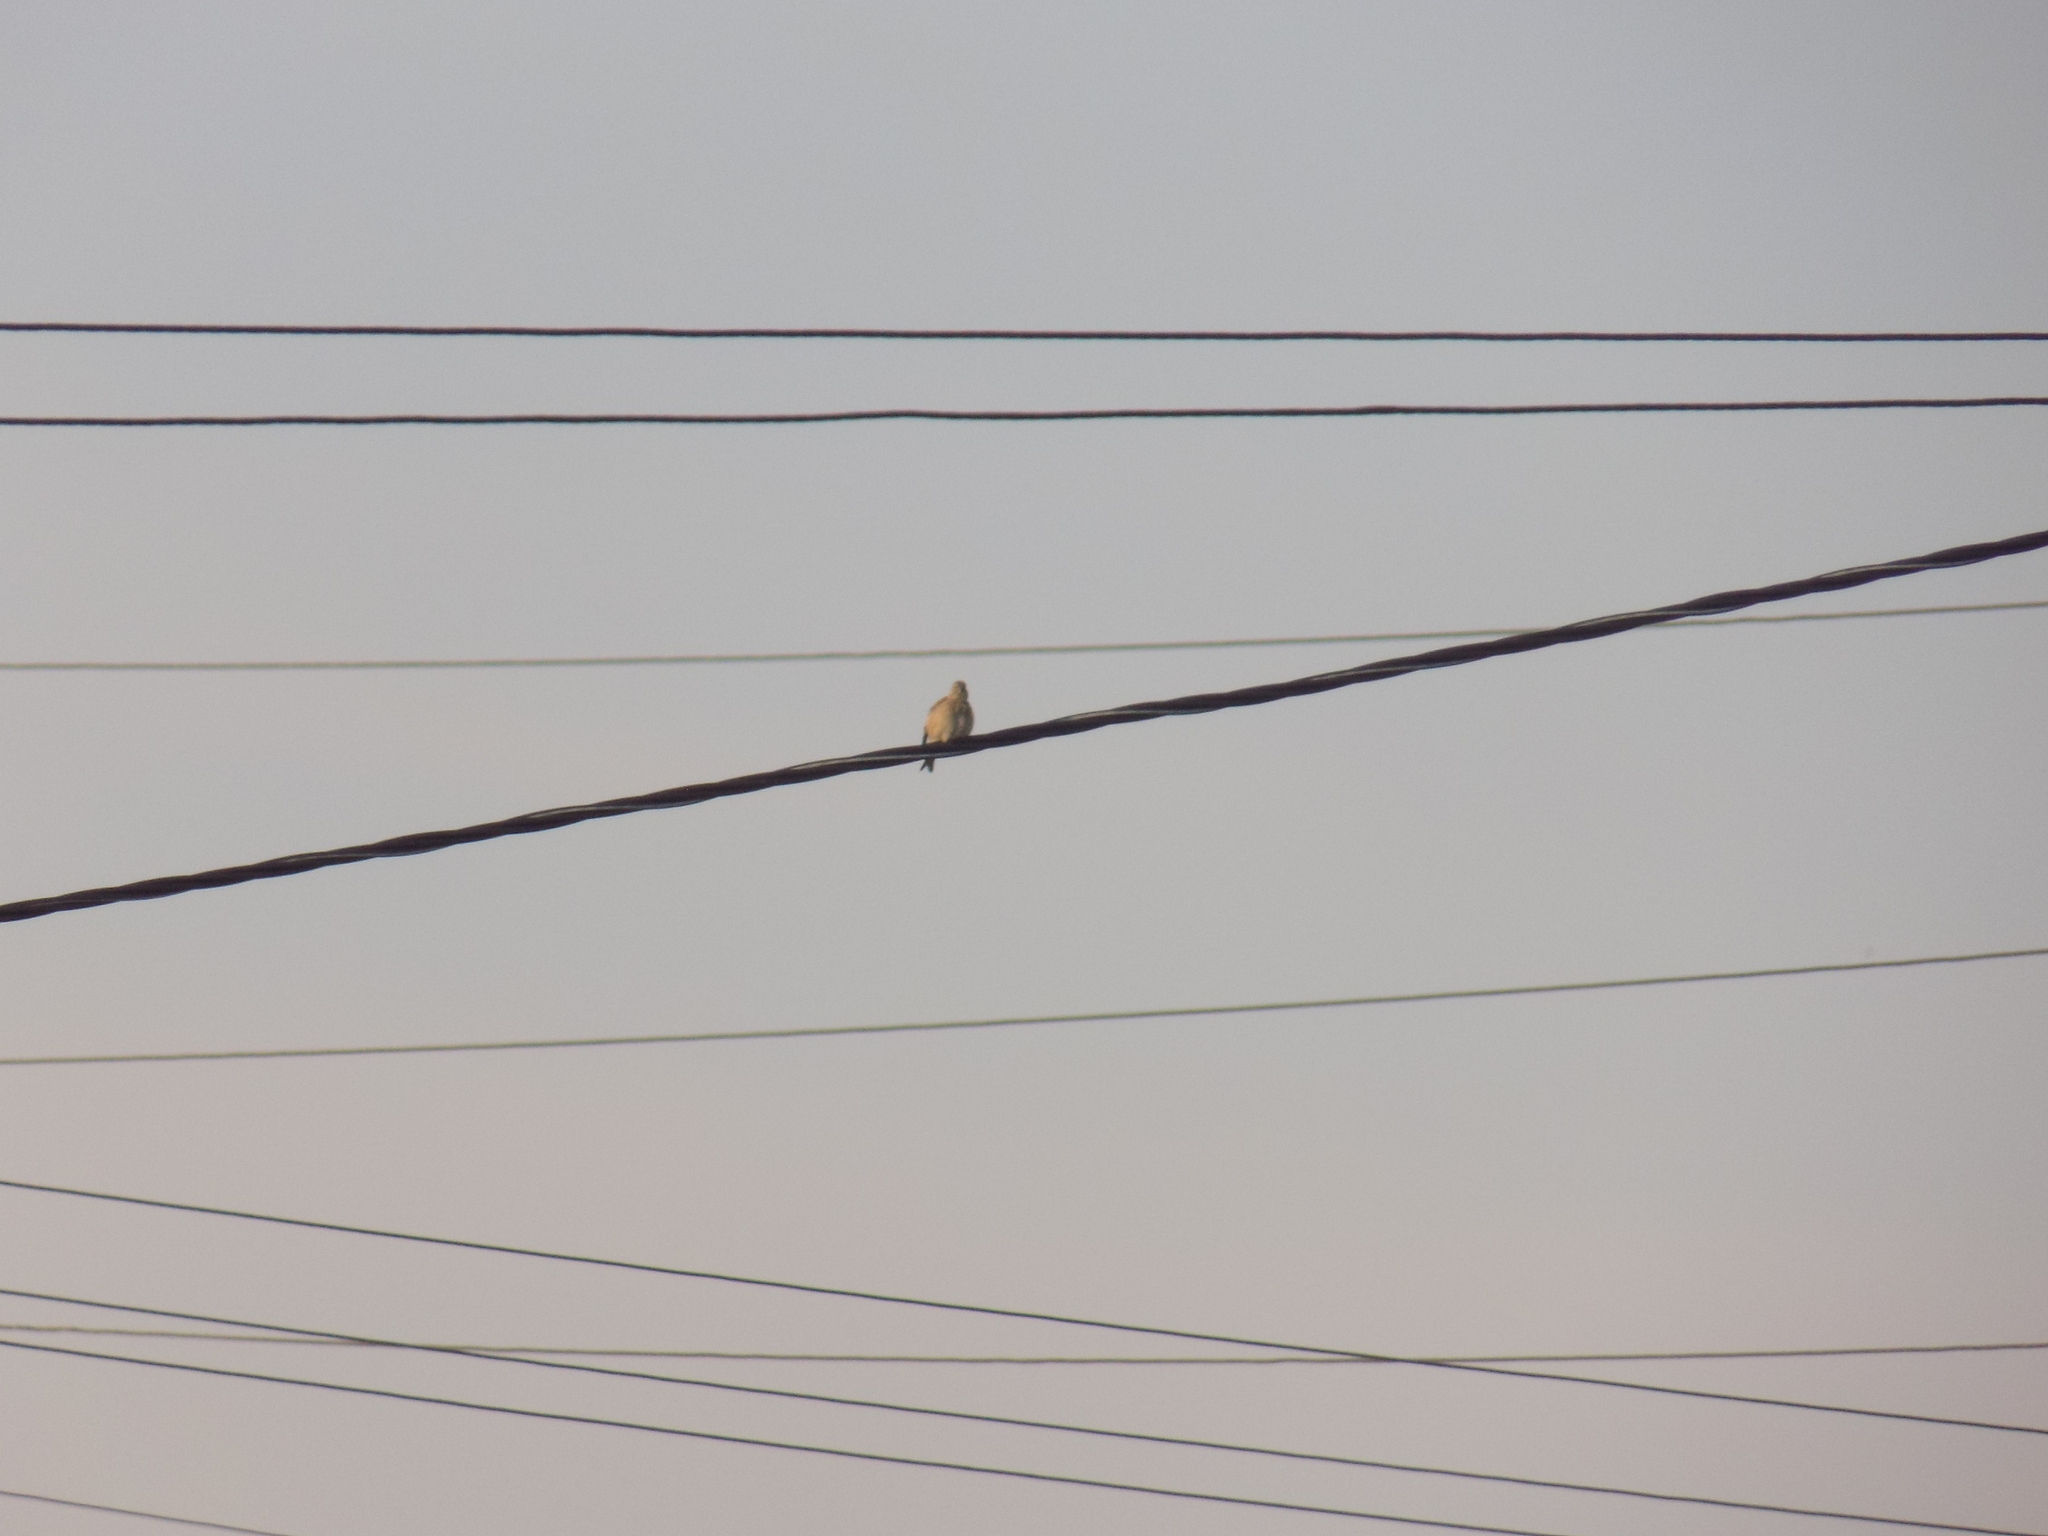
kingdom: Animalia
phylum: Chordata
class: Aves
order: Passeriformes
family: Fringillidae
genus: Linaria
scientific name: Linaria cannabina
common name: Common linnet
